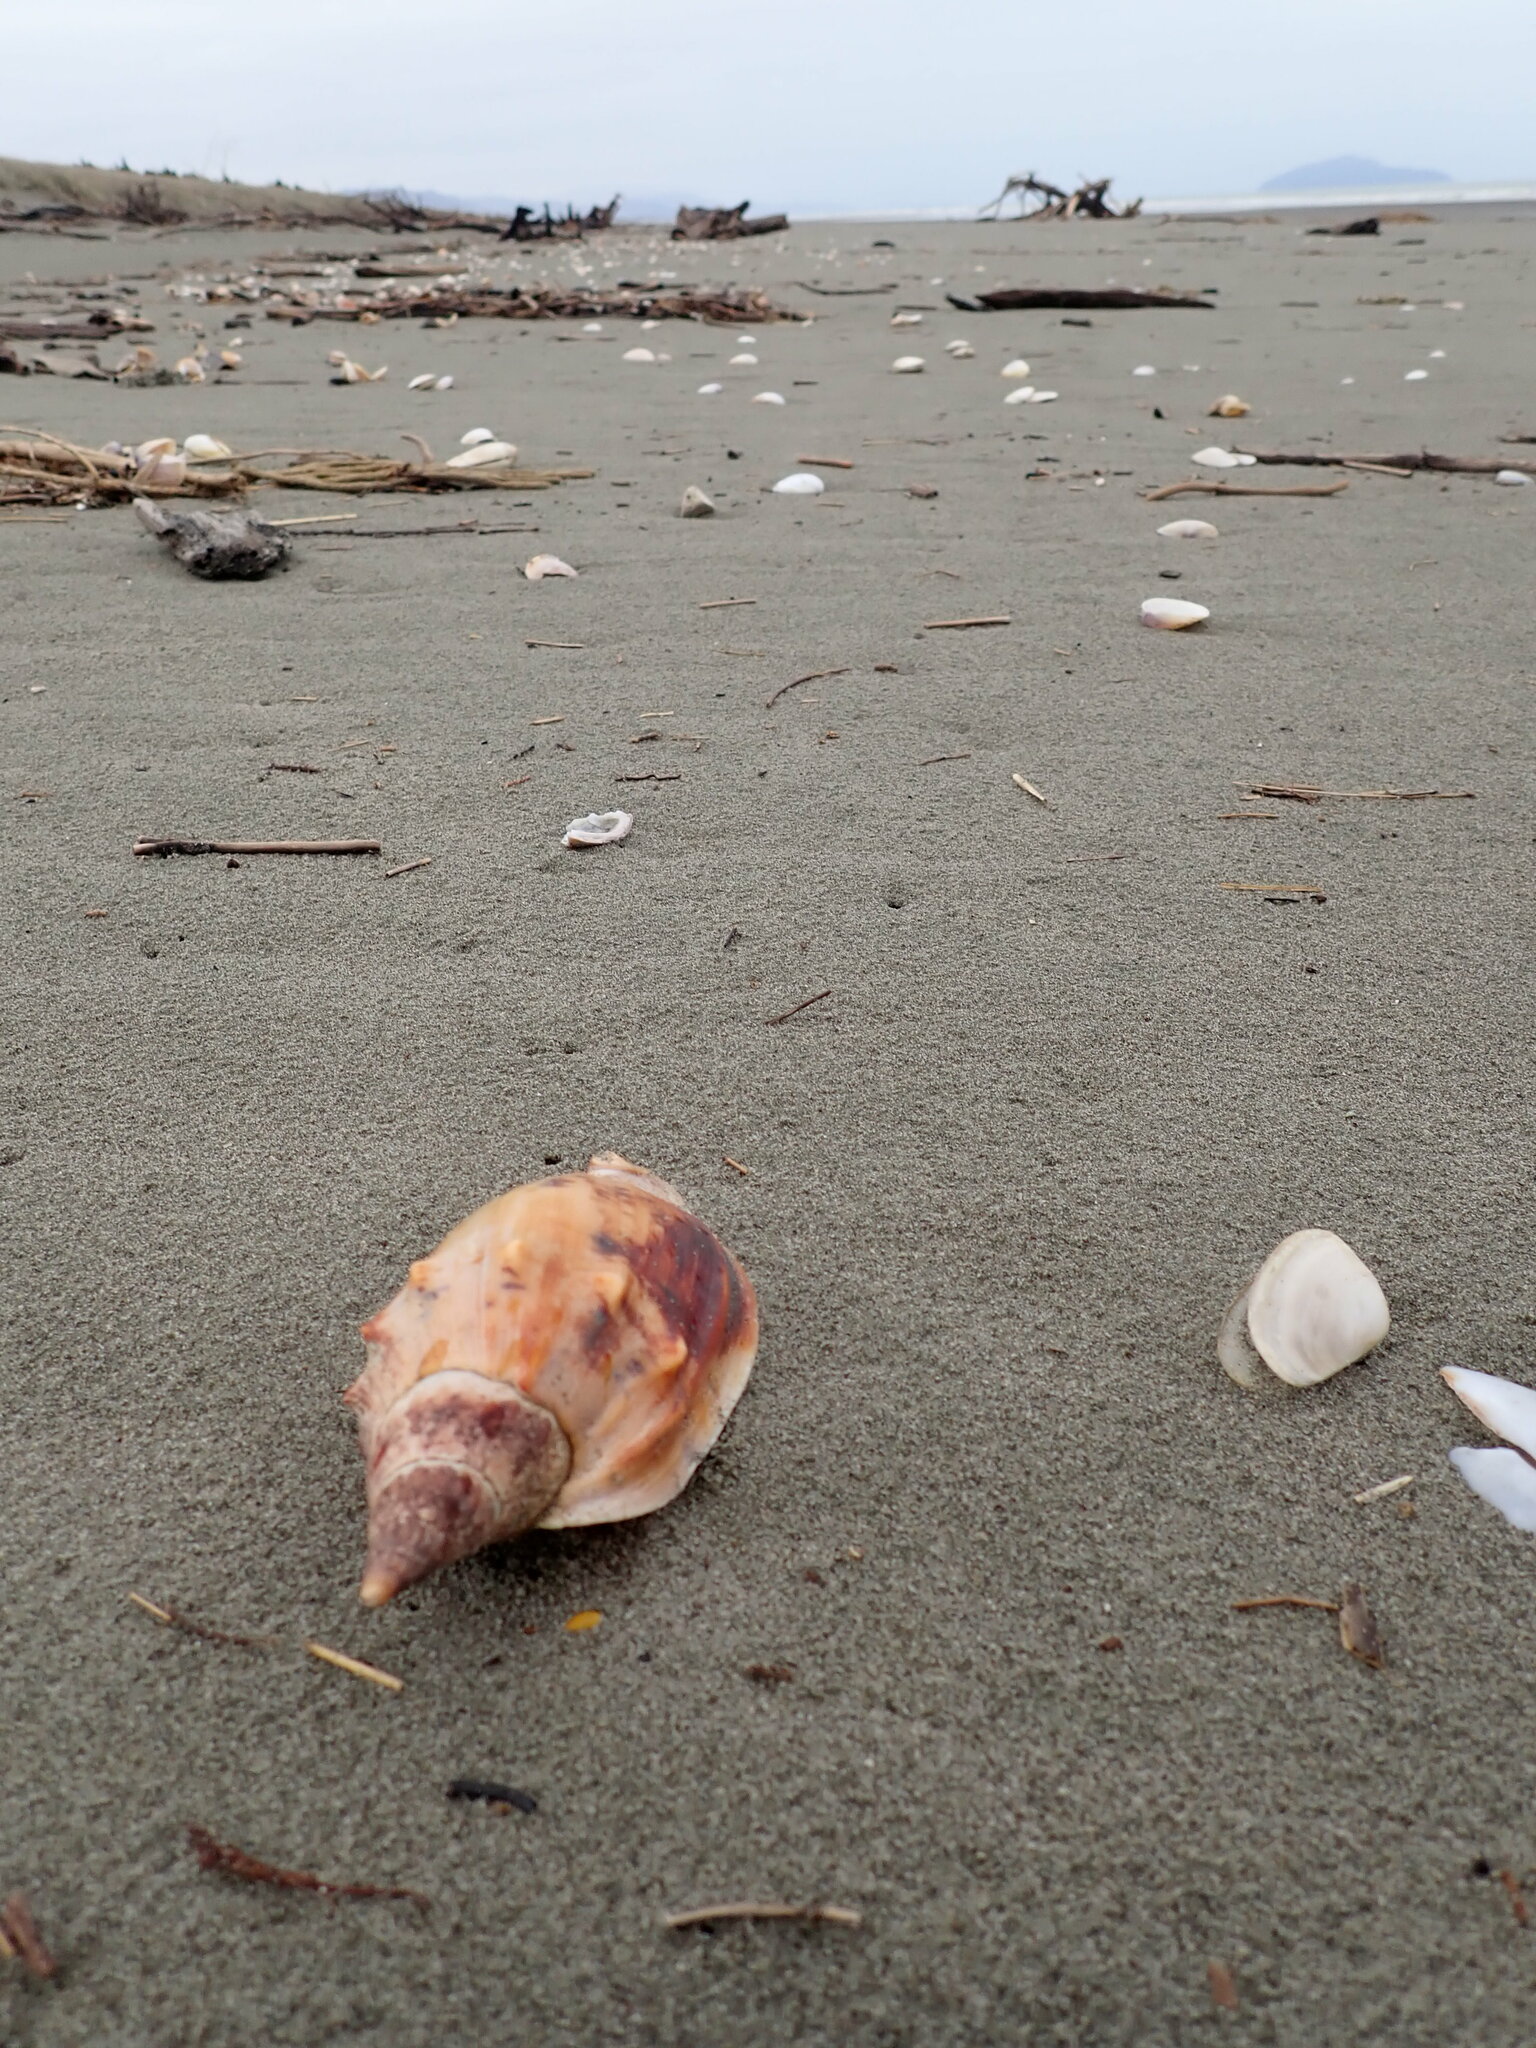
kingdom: Animalia
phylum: Mollusca
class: Gastropoda
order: Neogastropoda
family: Volutidae
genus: Alcithoe
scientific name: Alcithoe arabica
